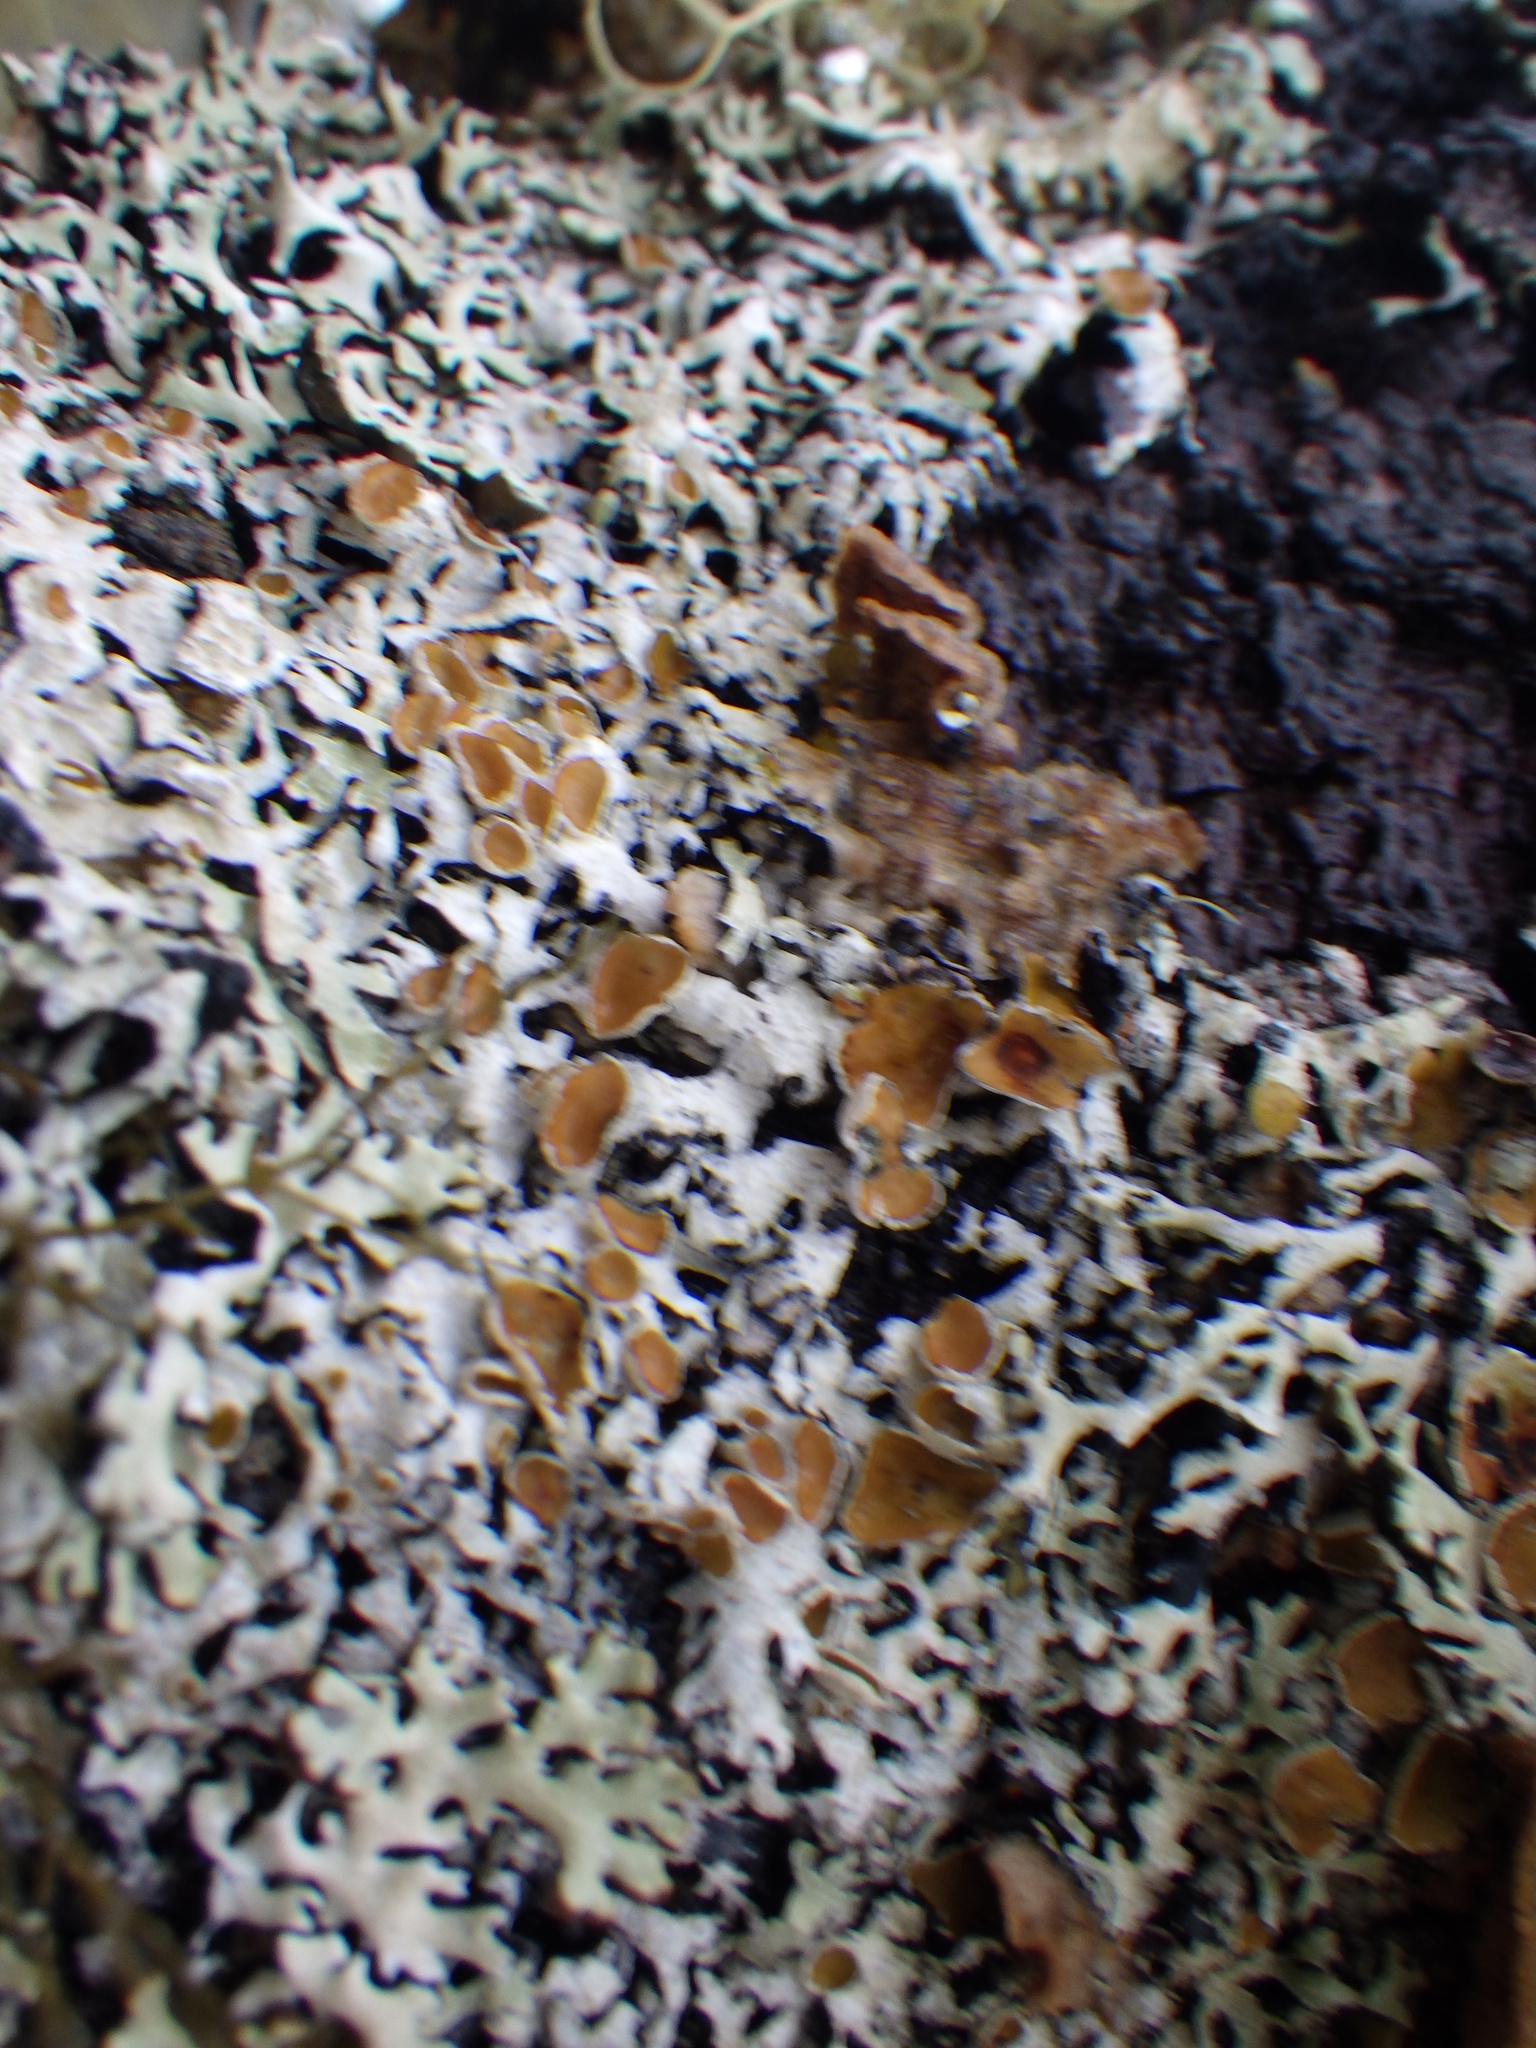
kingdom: Fungi
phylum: Ascomycota
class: Lecanoromycetes
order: Lecanorales
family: Parmeliaceae
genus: Parmelia
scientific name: Parmelia squarrosa
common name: Bottle brush shield lichen
